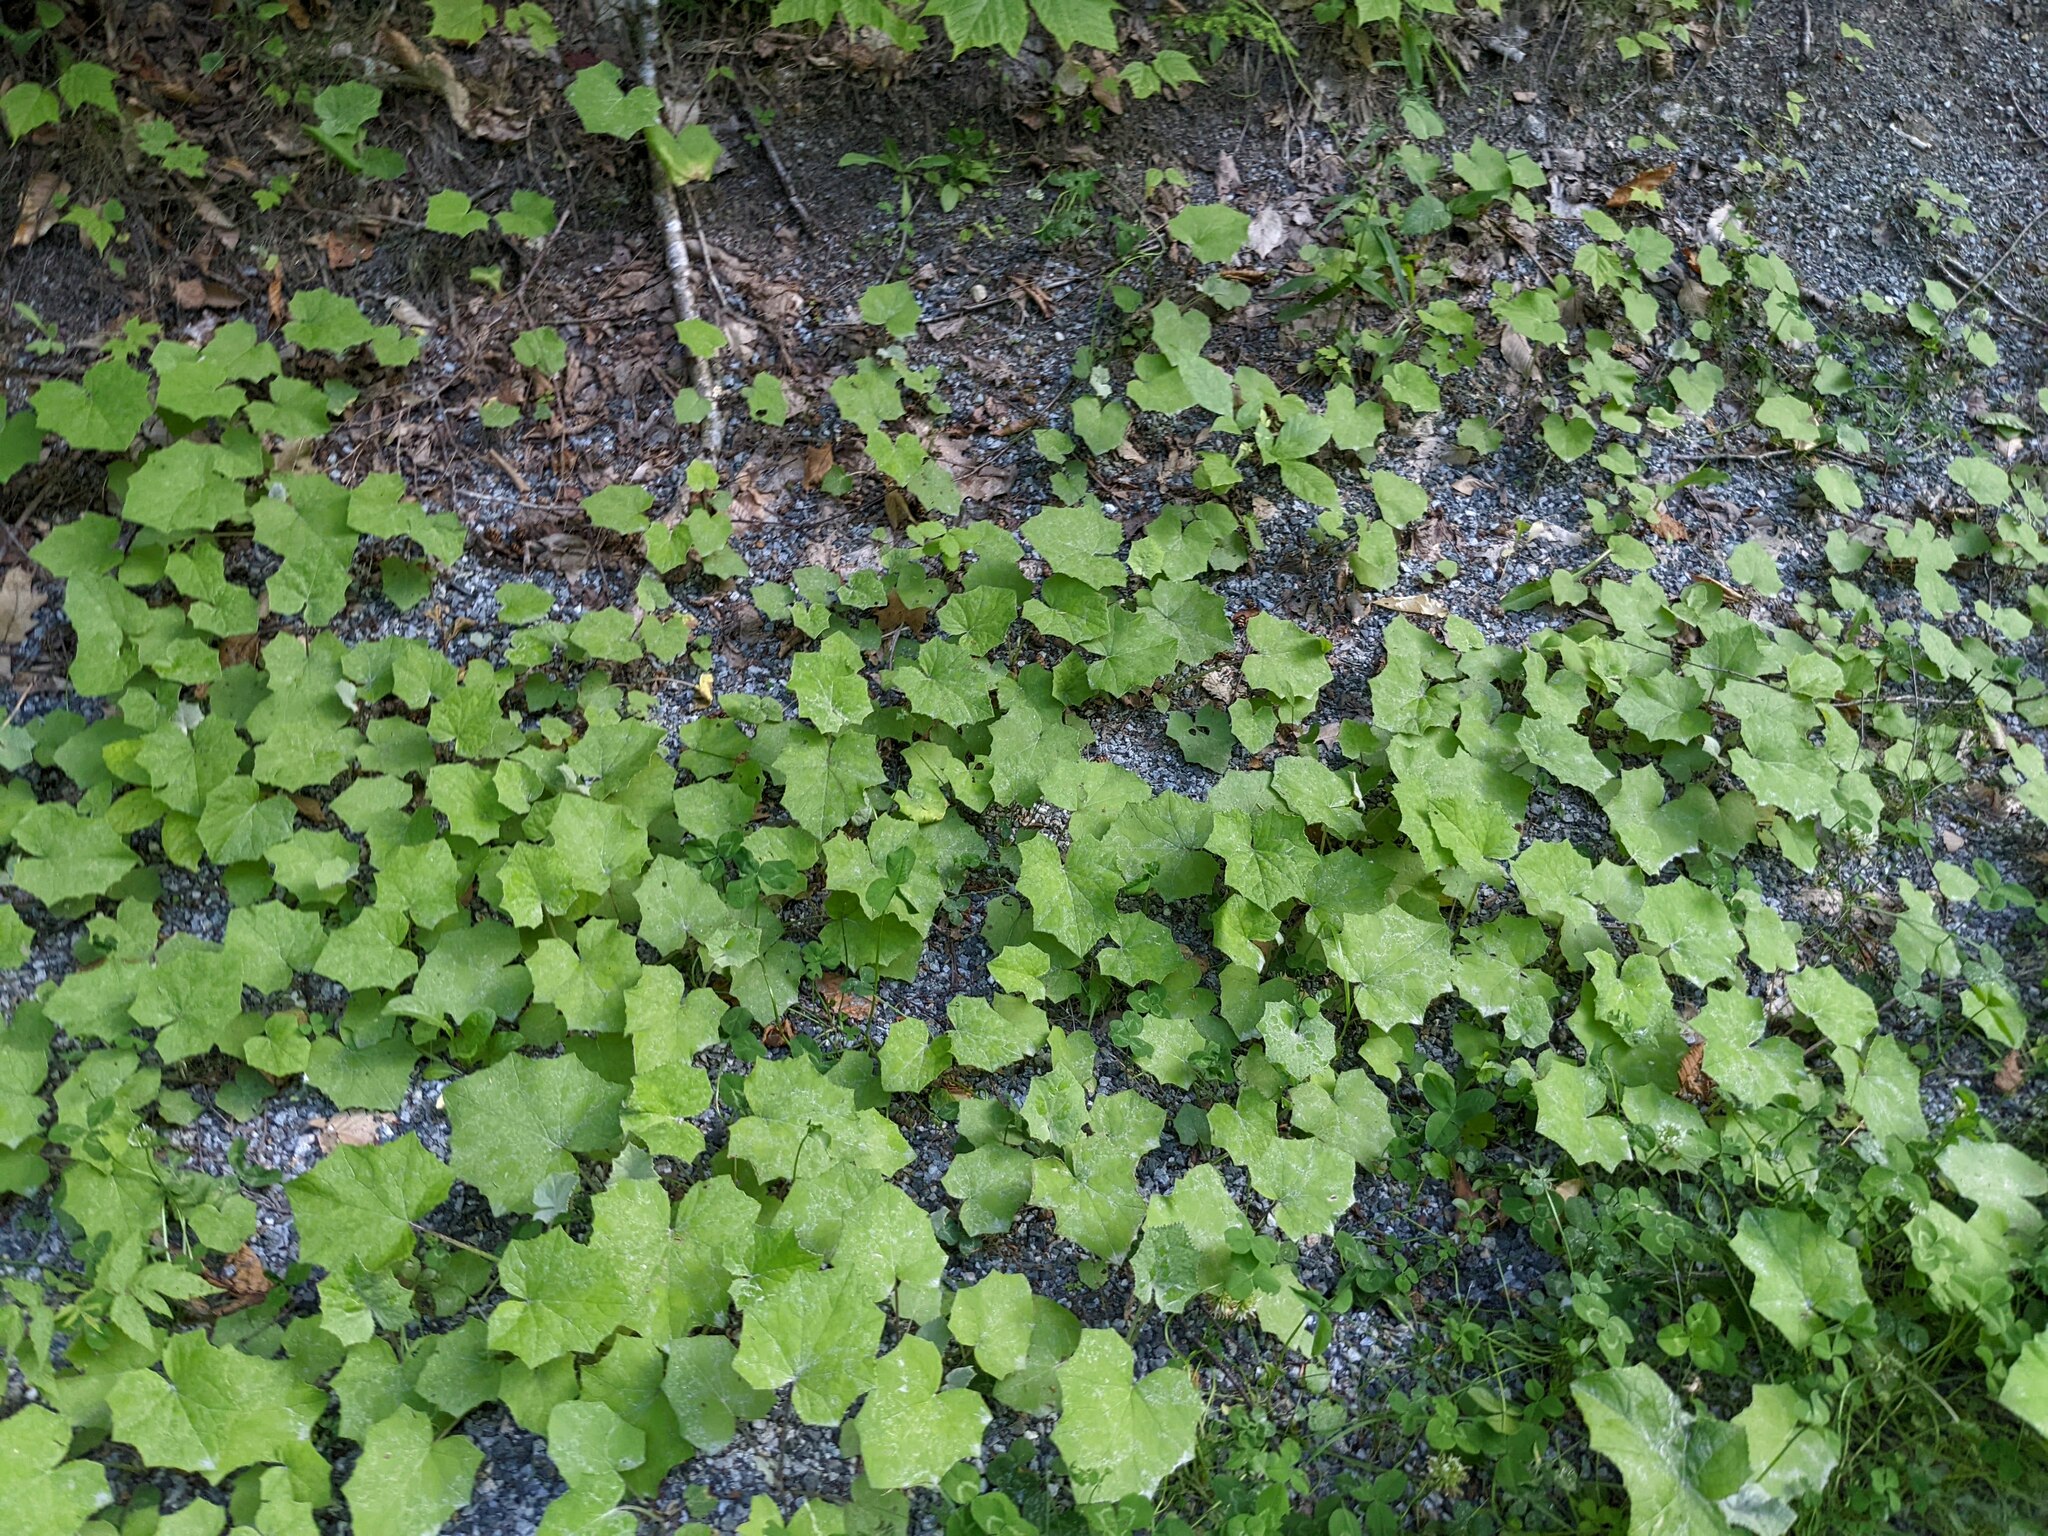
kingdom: Plantae
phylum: Tracheophyta
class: Magnoliopsida
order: Asterales
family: Asteraceae
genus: Tussilago
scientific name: Tussilago farfara
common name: Coltsfoot
